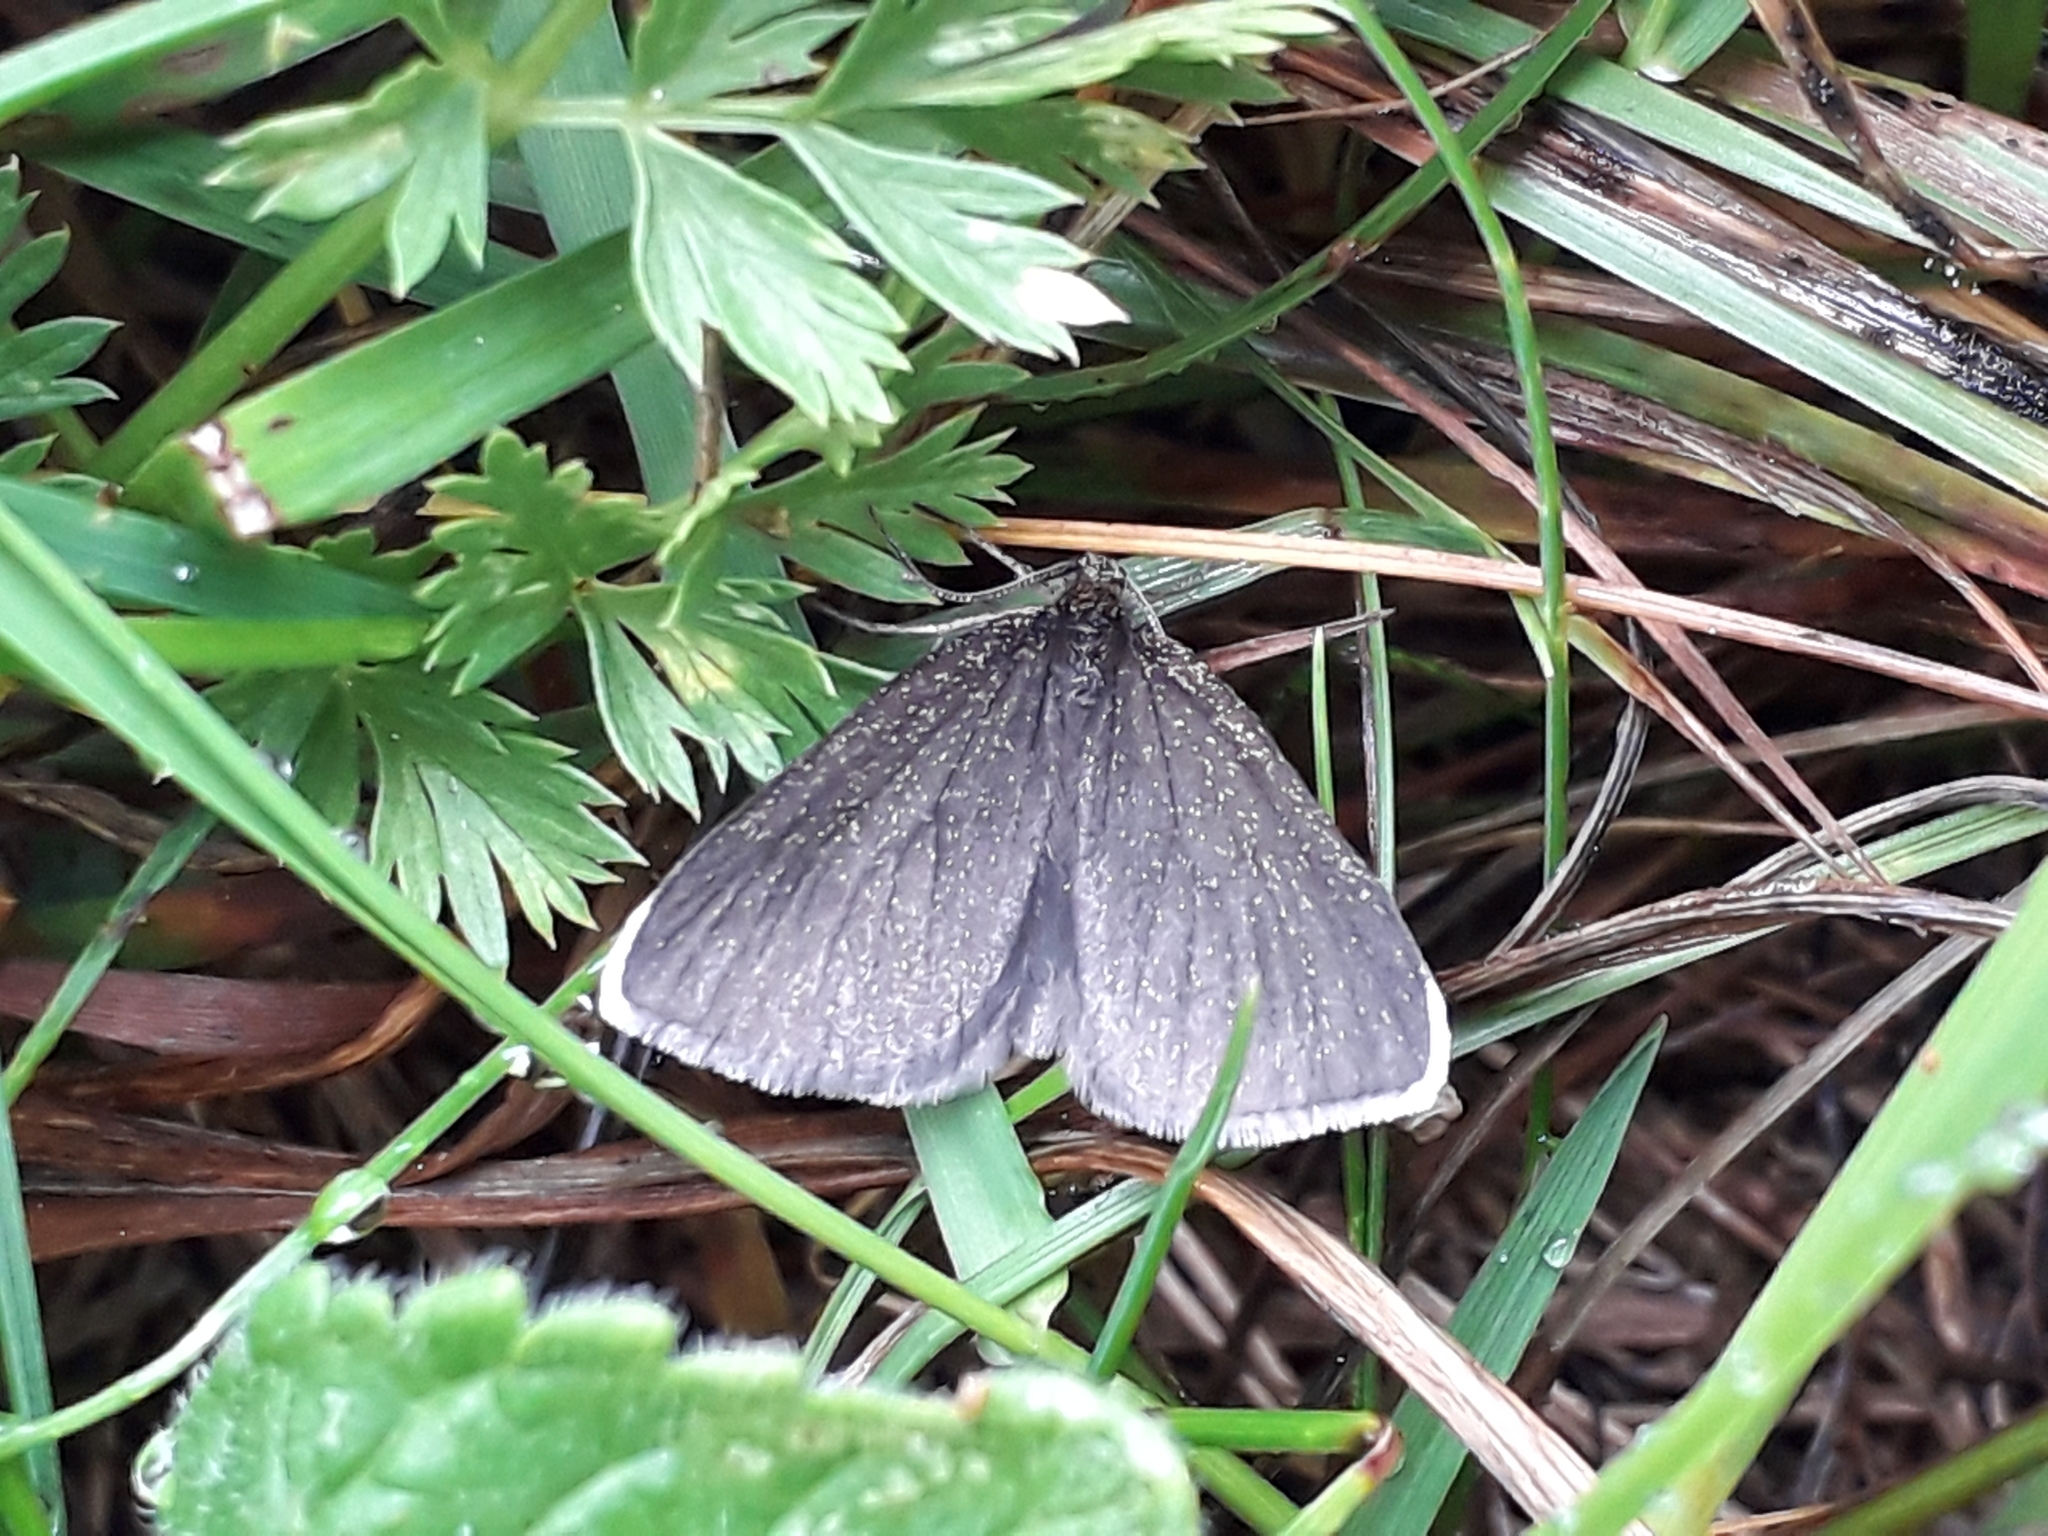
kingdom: Animalia
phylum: Arthropoda
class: Insecta
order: Lepidoptera
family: Geometridae
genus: Odezia
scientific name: Odezia atrata
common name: Chimney sweeper
